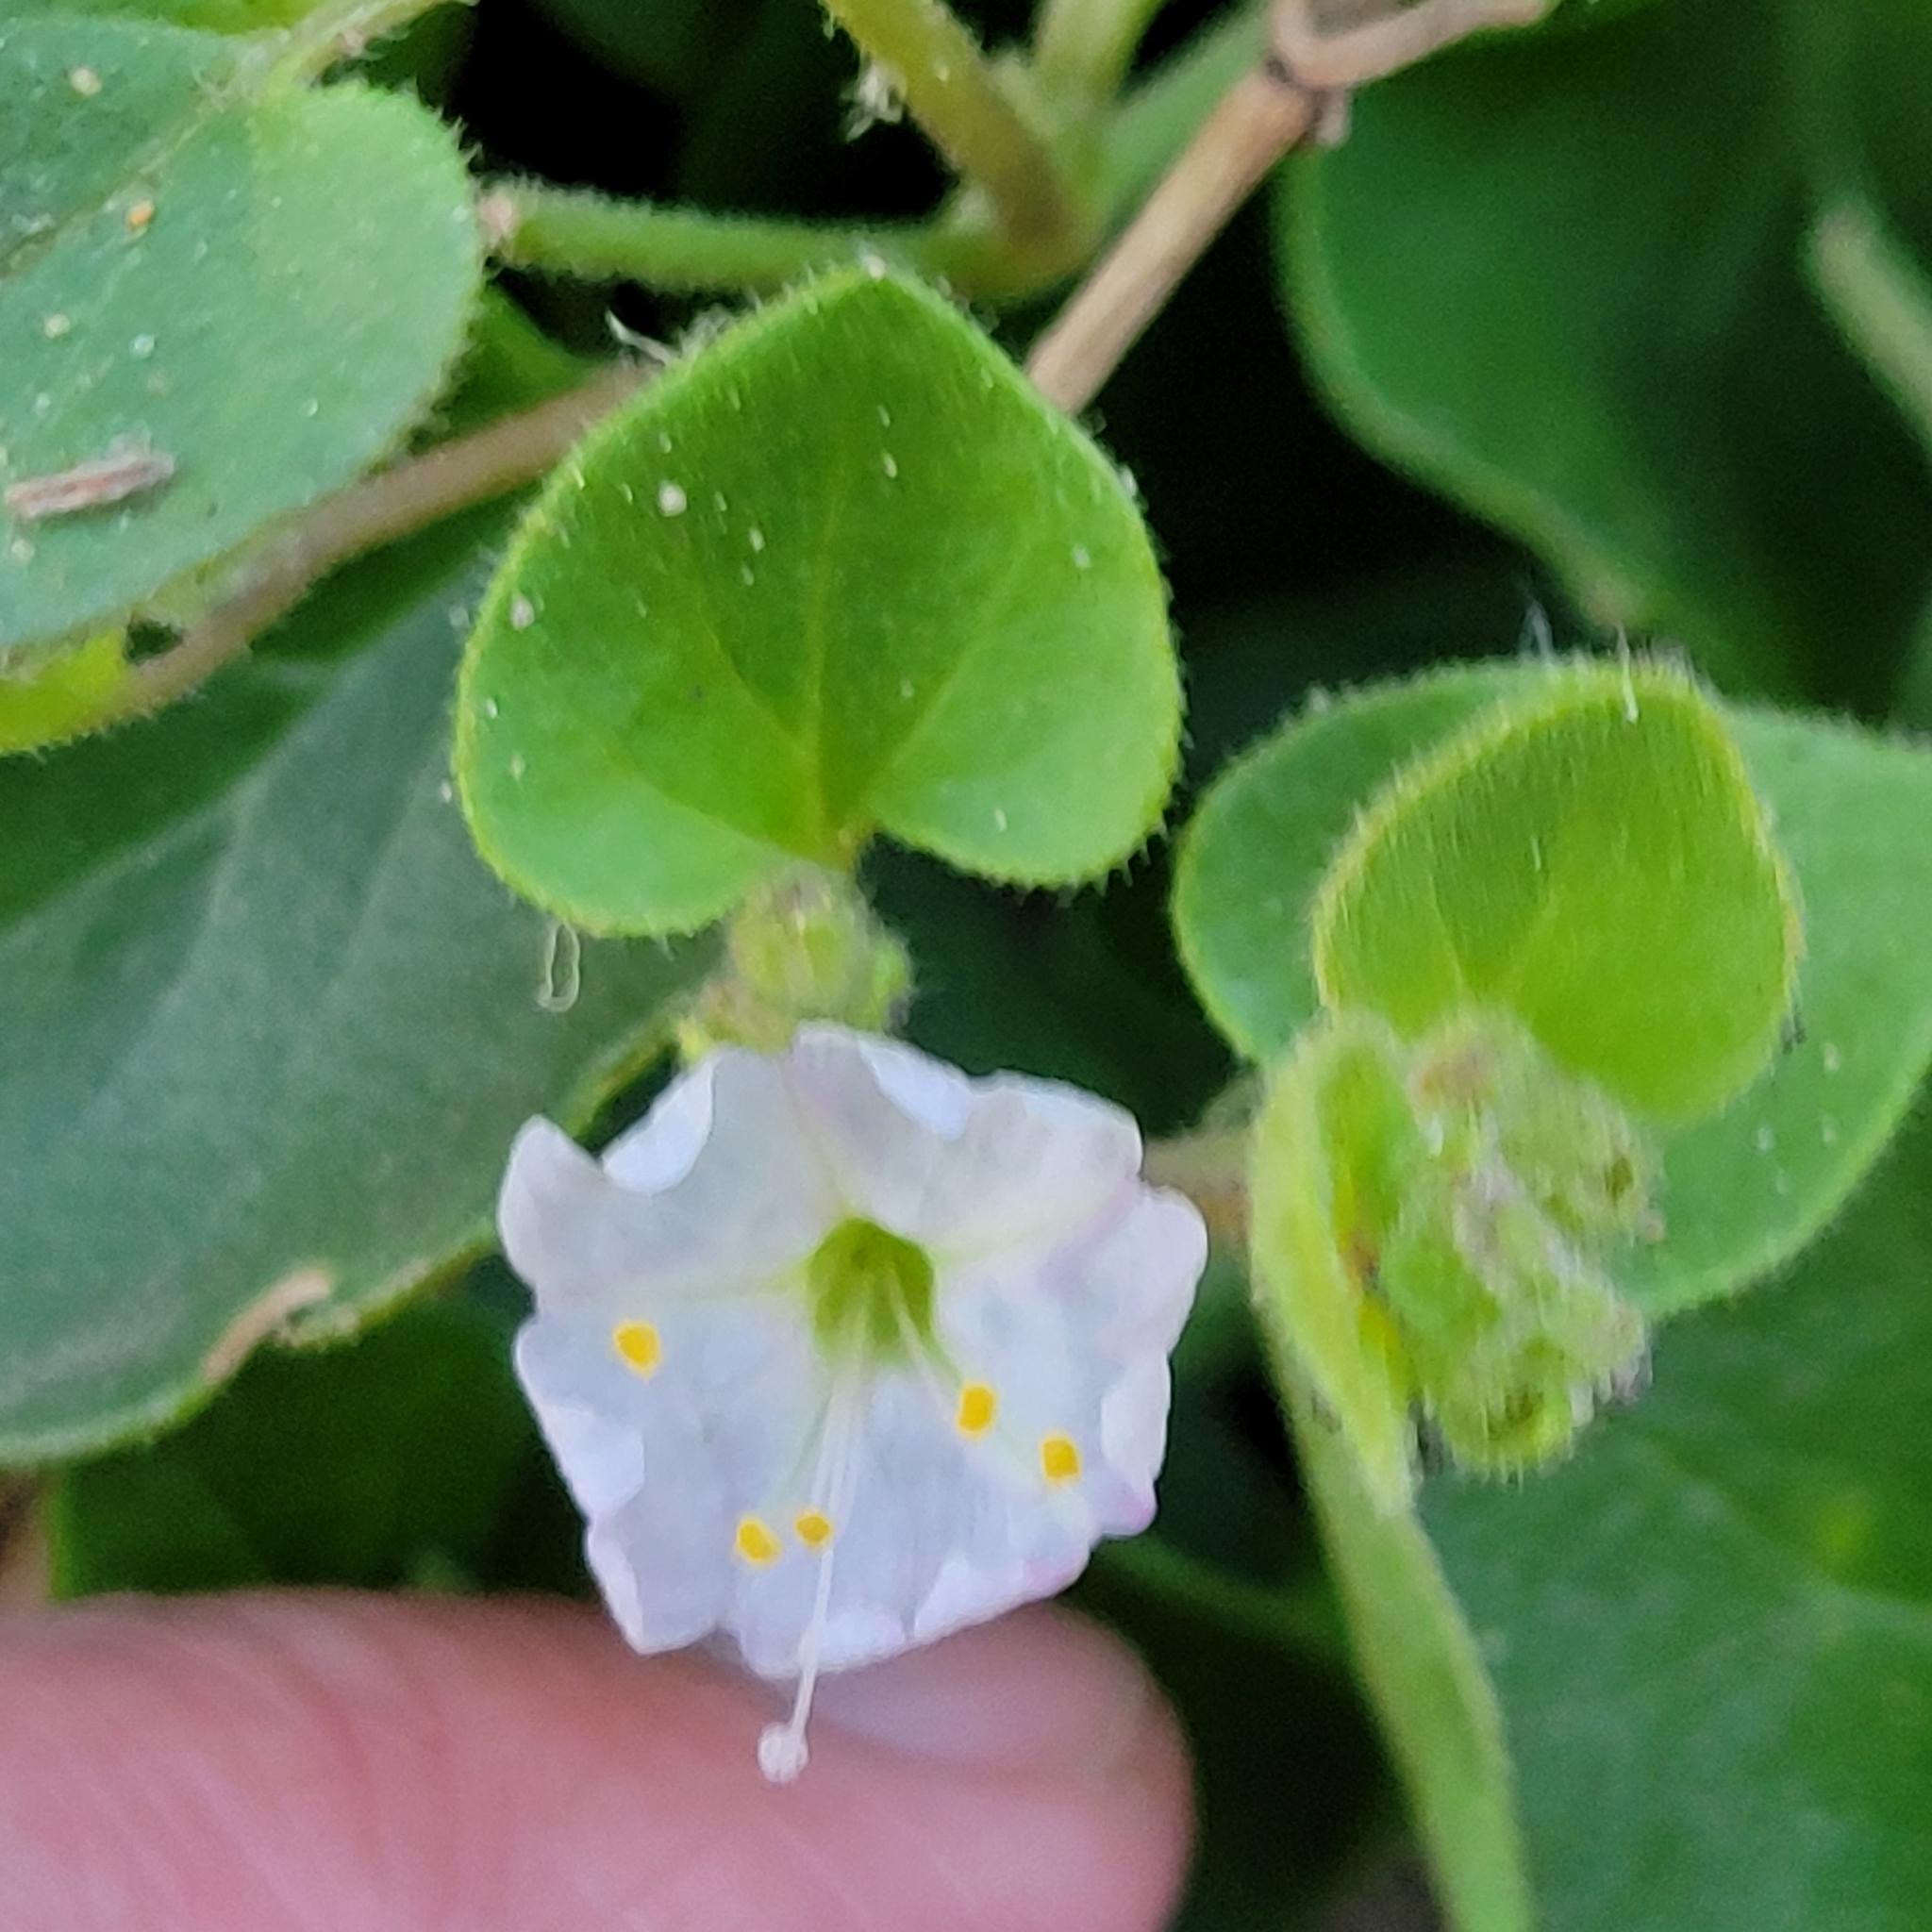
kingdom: Plantae
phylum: Tracheophyta
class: Magnoliopsida
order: Caryophyllales
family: Nyctaginaceae
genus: Mirabilis
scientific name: Mirabilis laevis
